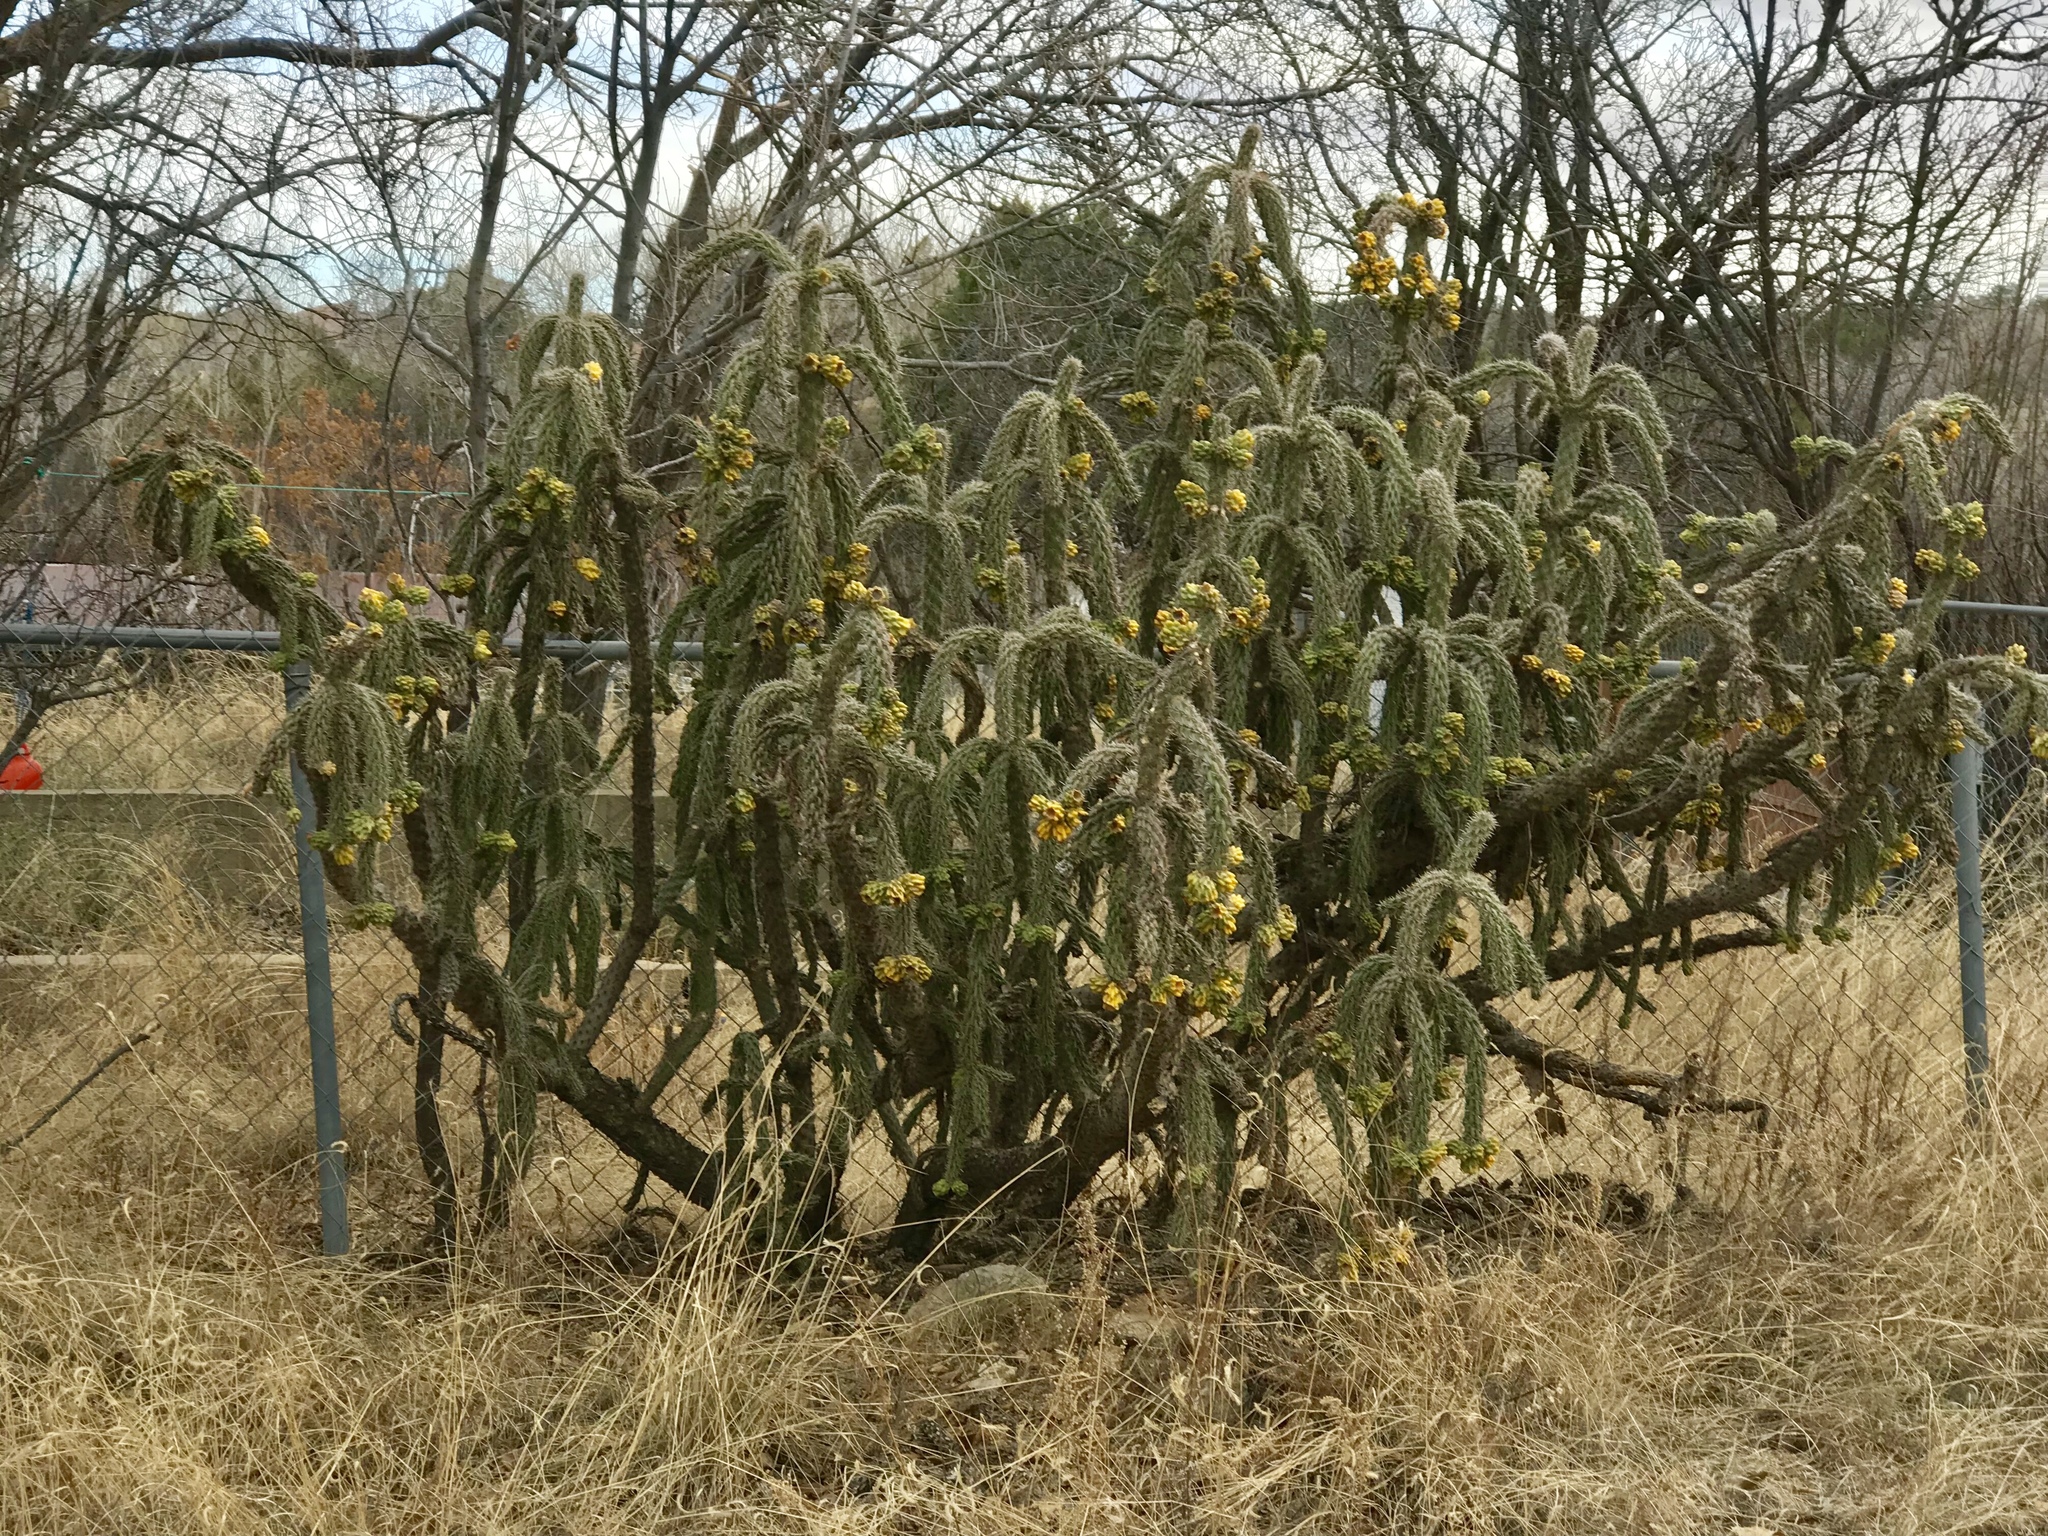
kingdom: Plantae
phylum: Tracheophyta
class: Magnoliopsida
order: Caryophyllales
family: Cactaceae
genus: Cylindropuntia
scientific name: Cylindropuntia imbricata
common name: Candelabrum cactus
